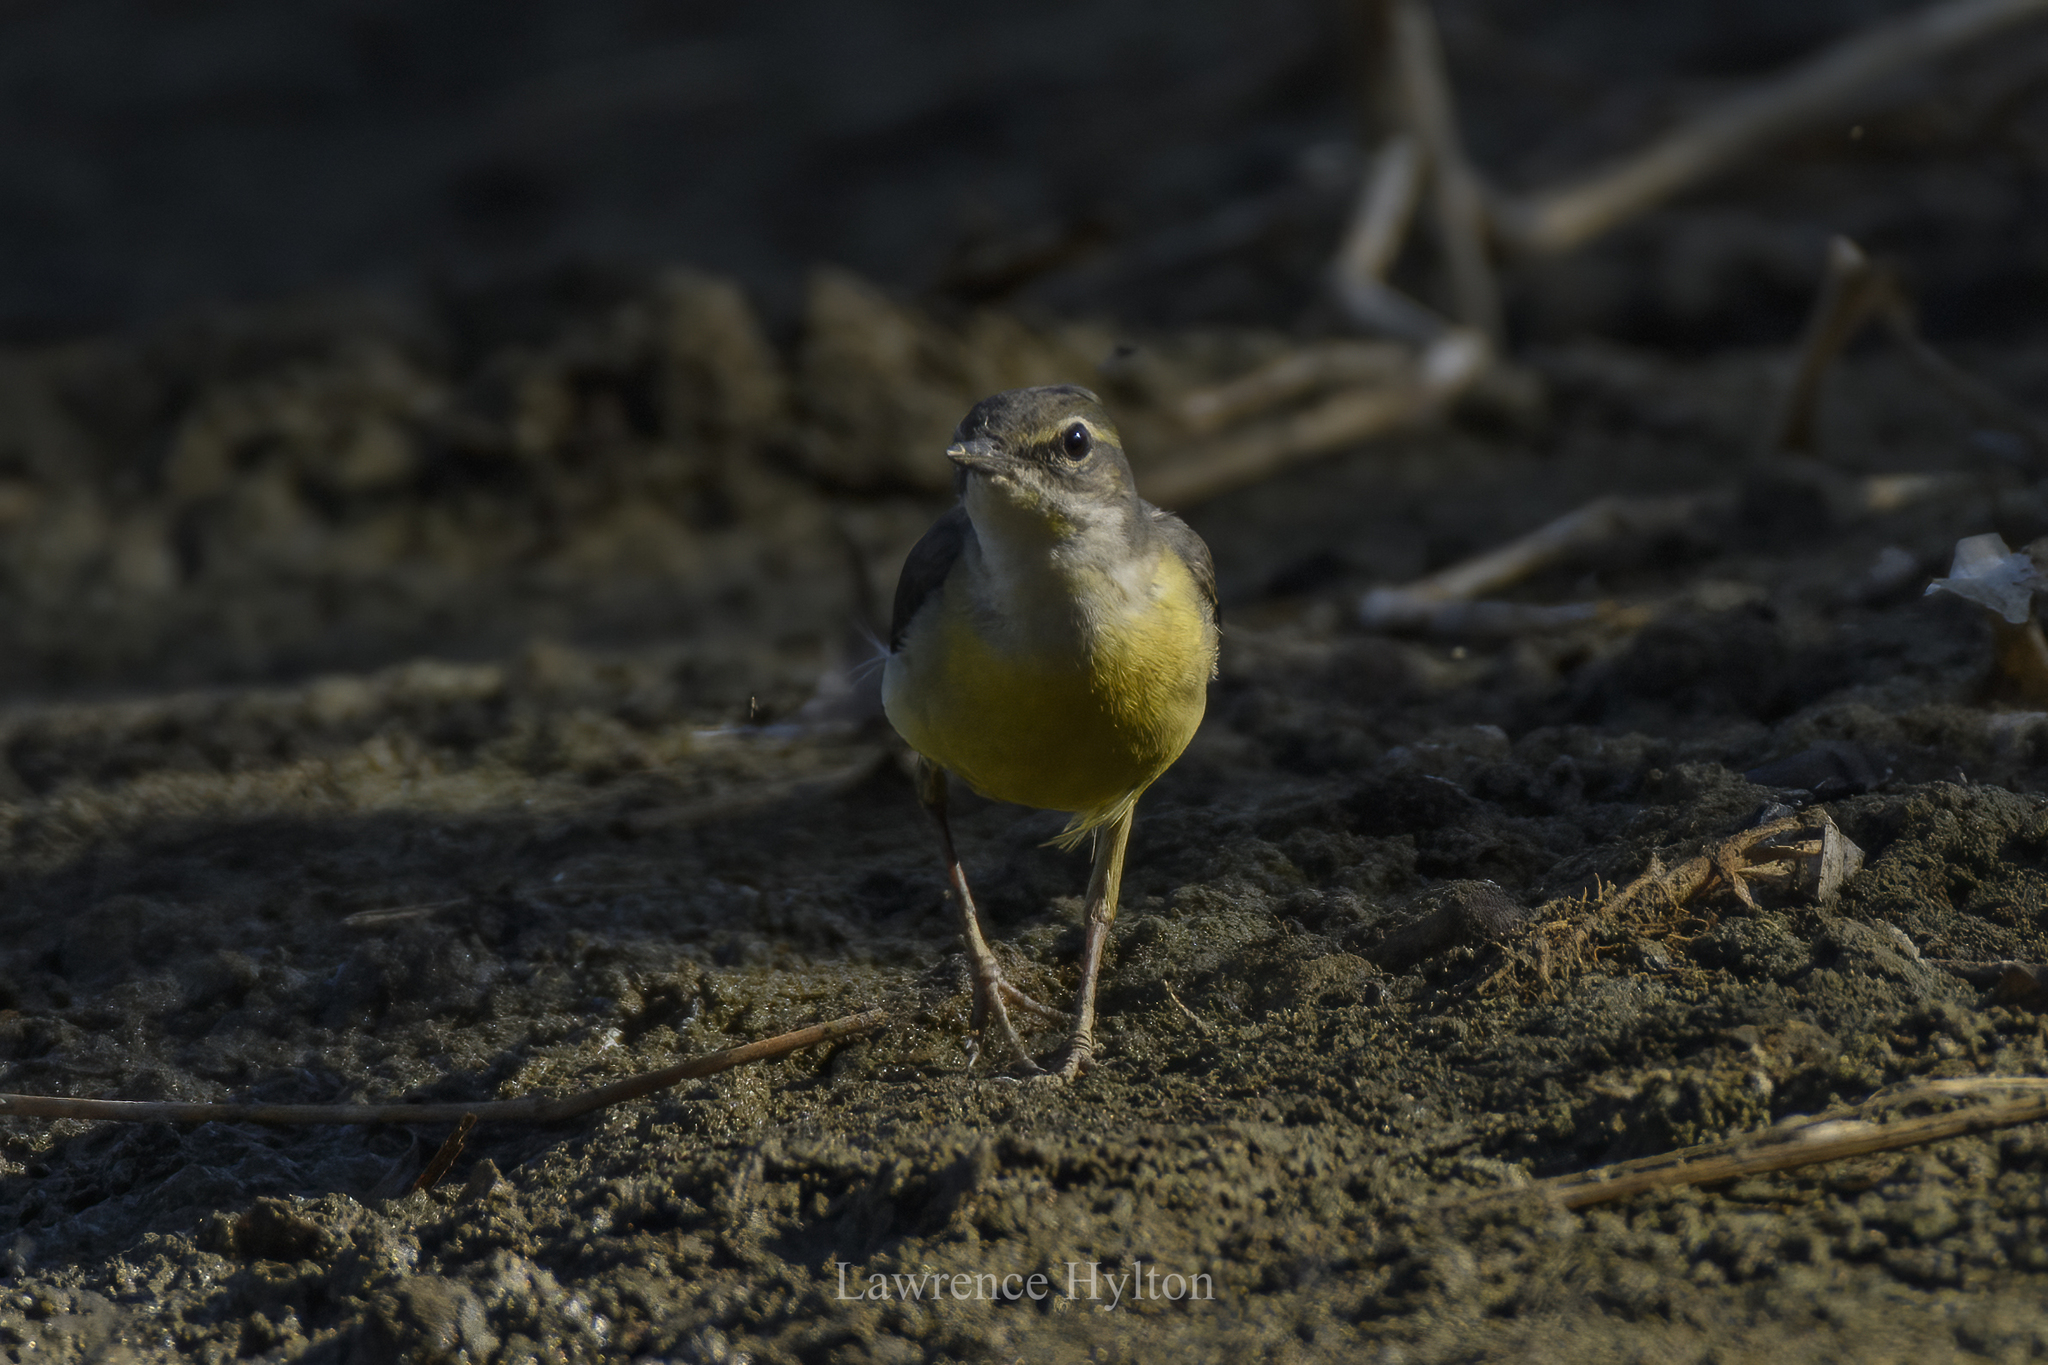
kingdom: Animalia
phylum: Chordata
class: Aves
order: Passeriformes
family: Motacillidae
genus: Motacilla
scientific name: Motacilla cinerea
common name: Grey wagtail
